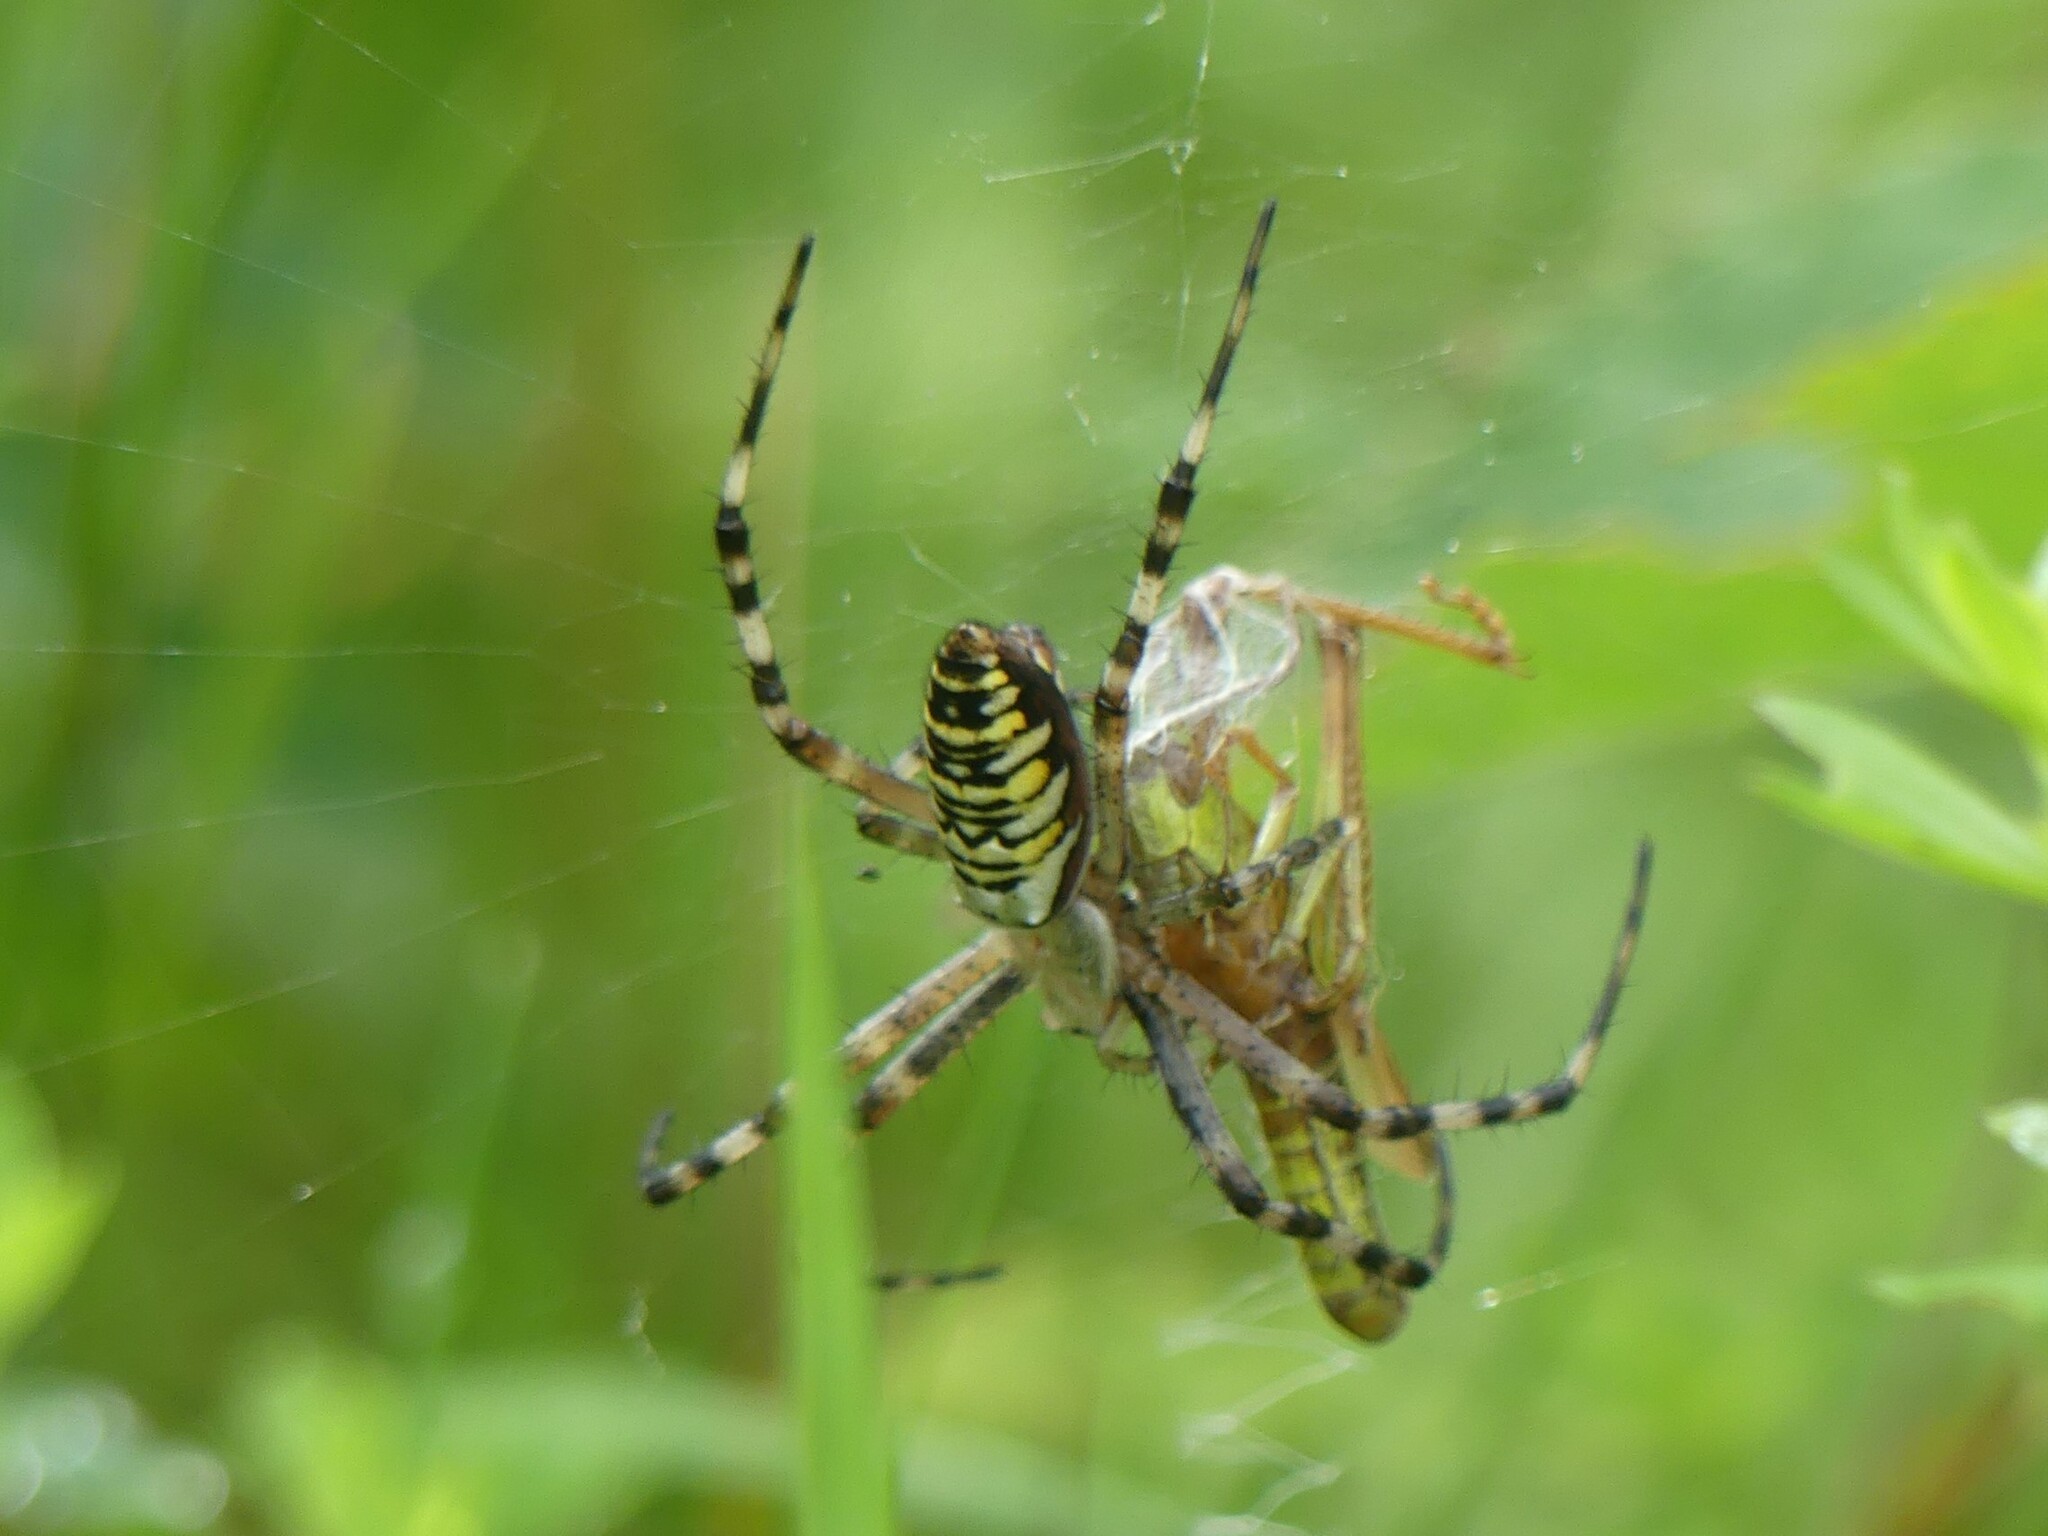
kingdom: Animalia
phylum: Arthropoda
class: Arachnida
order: Araneae
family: Araneidae
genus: Argiope
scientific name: Argiope bruennichi
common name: Wasp spider
